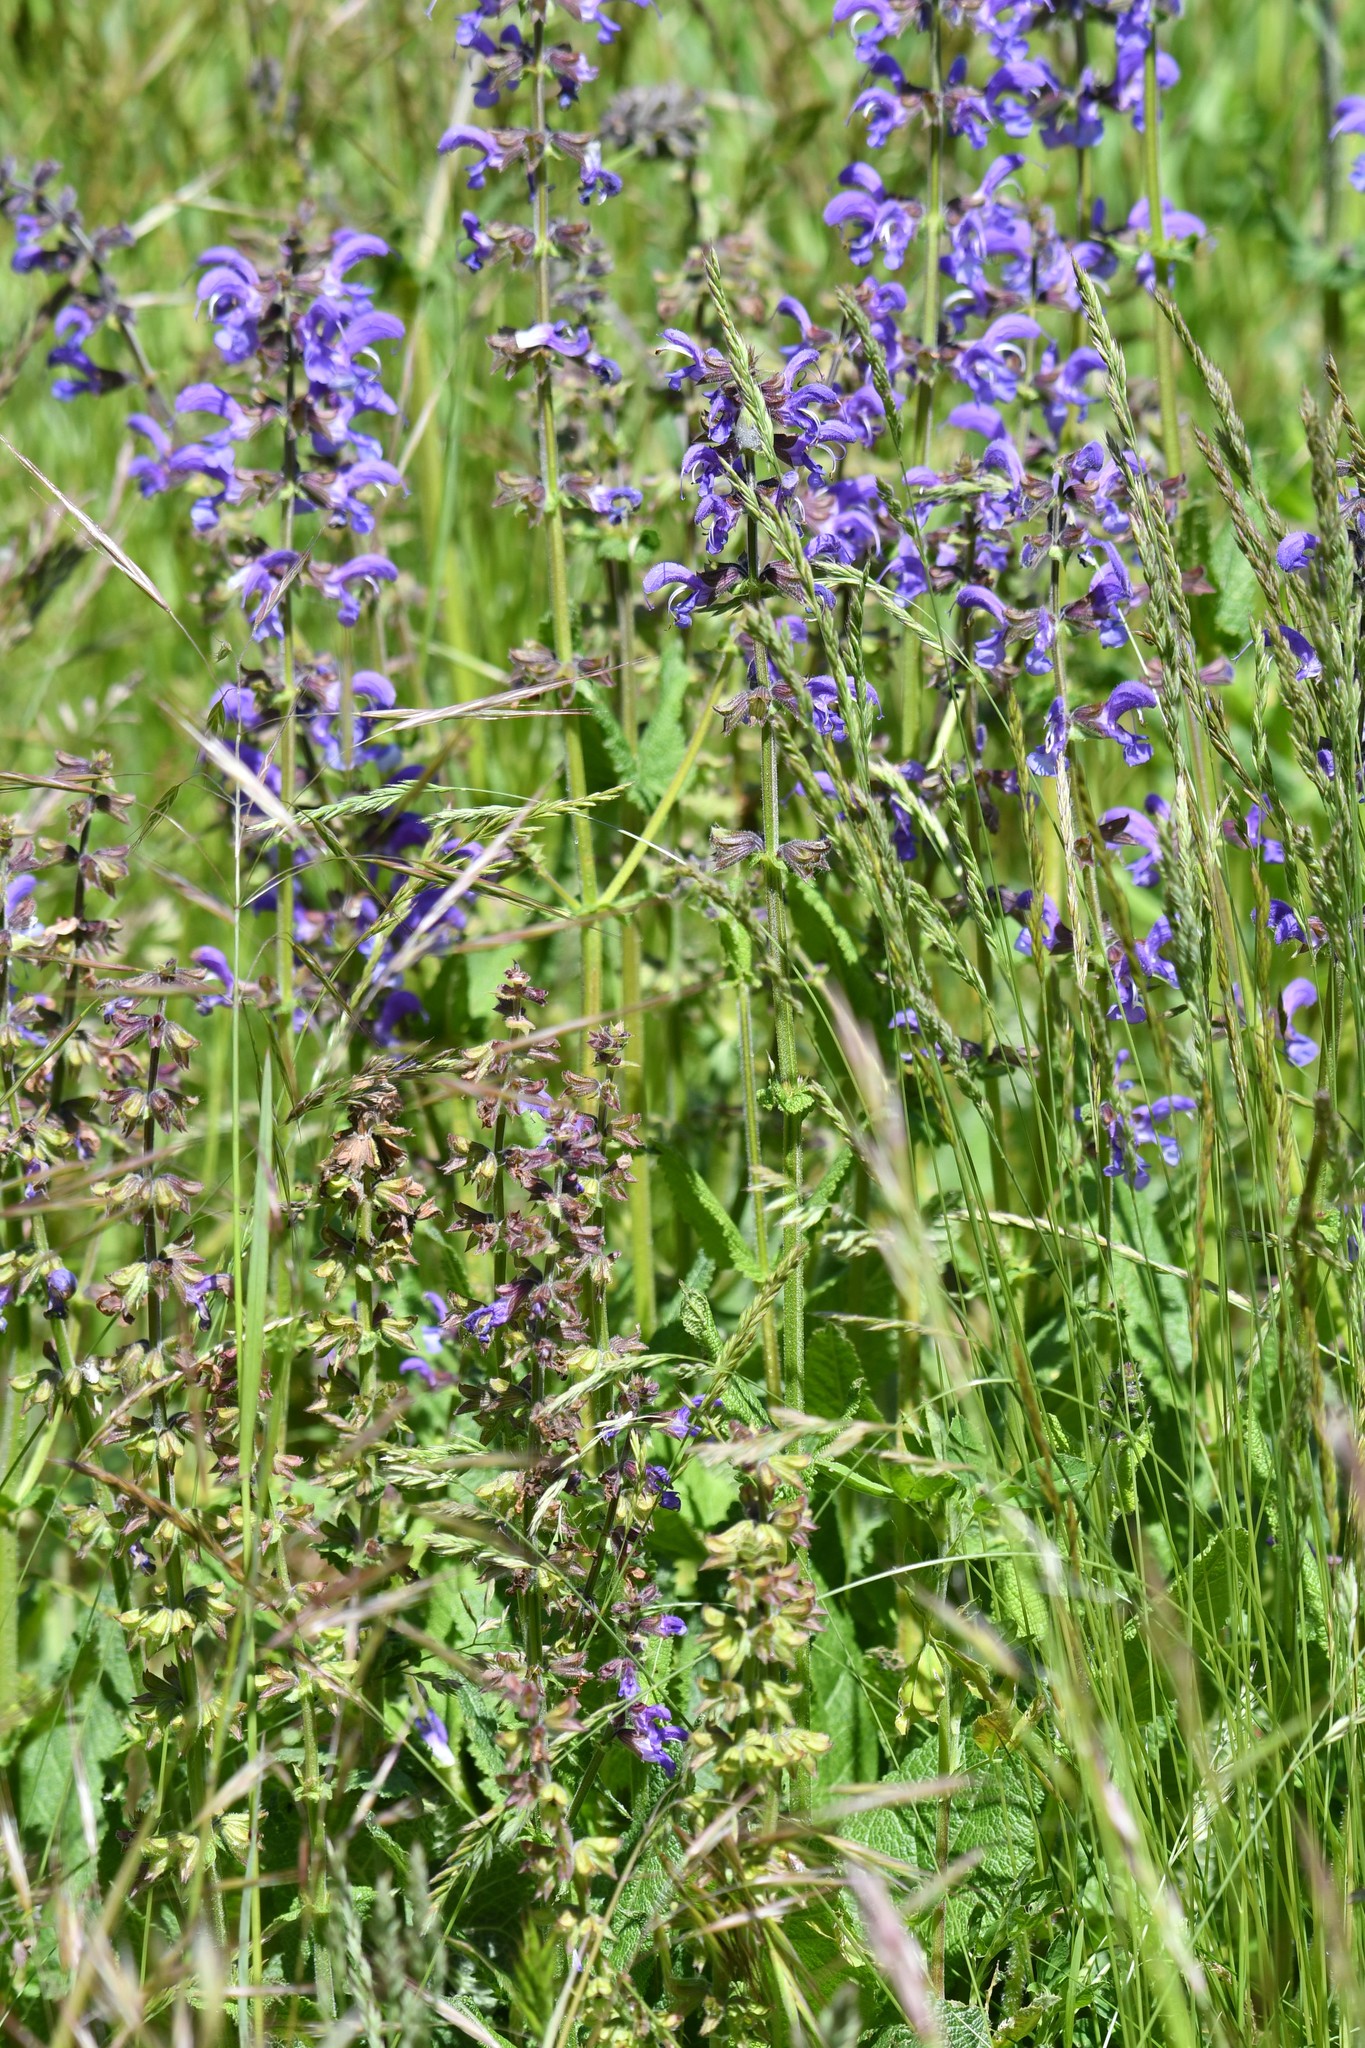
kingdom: Plantae
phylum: Tracheophyta
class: Magnoliopsida
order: Lamiales
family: Lamiaceae
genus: Salvia
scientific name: Salvia pratensis
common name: Meadow sage
